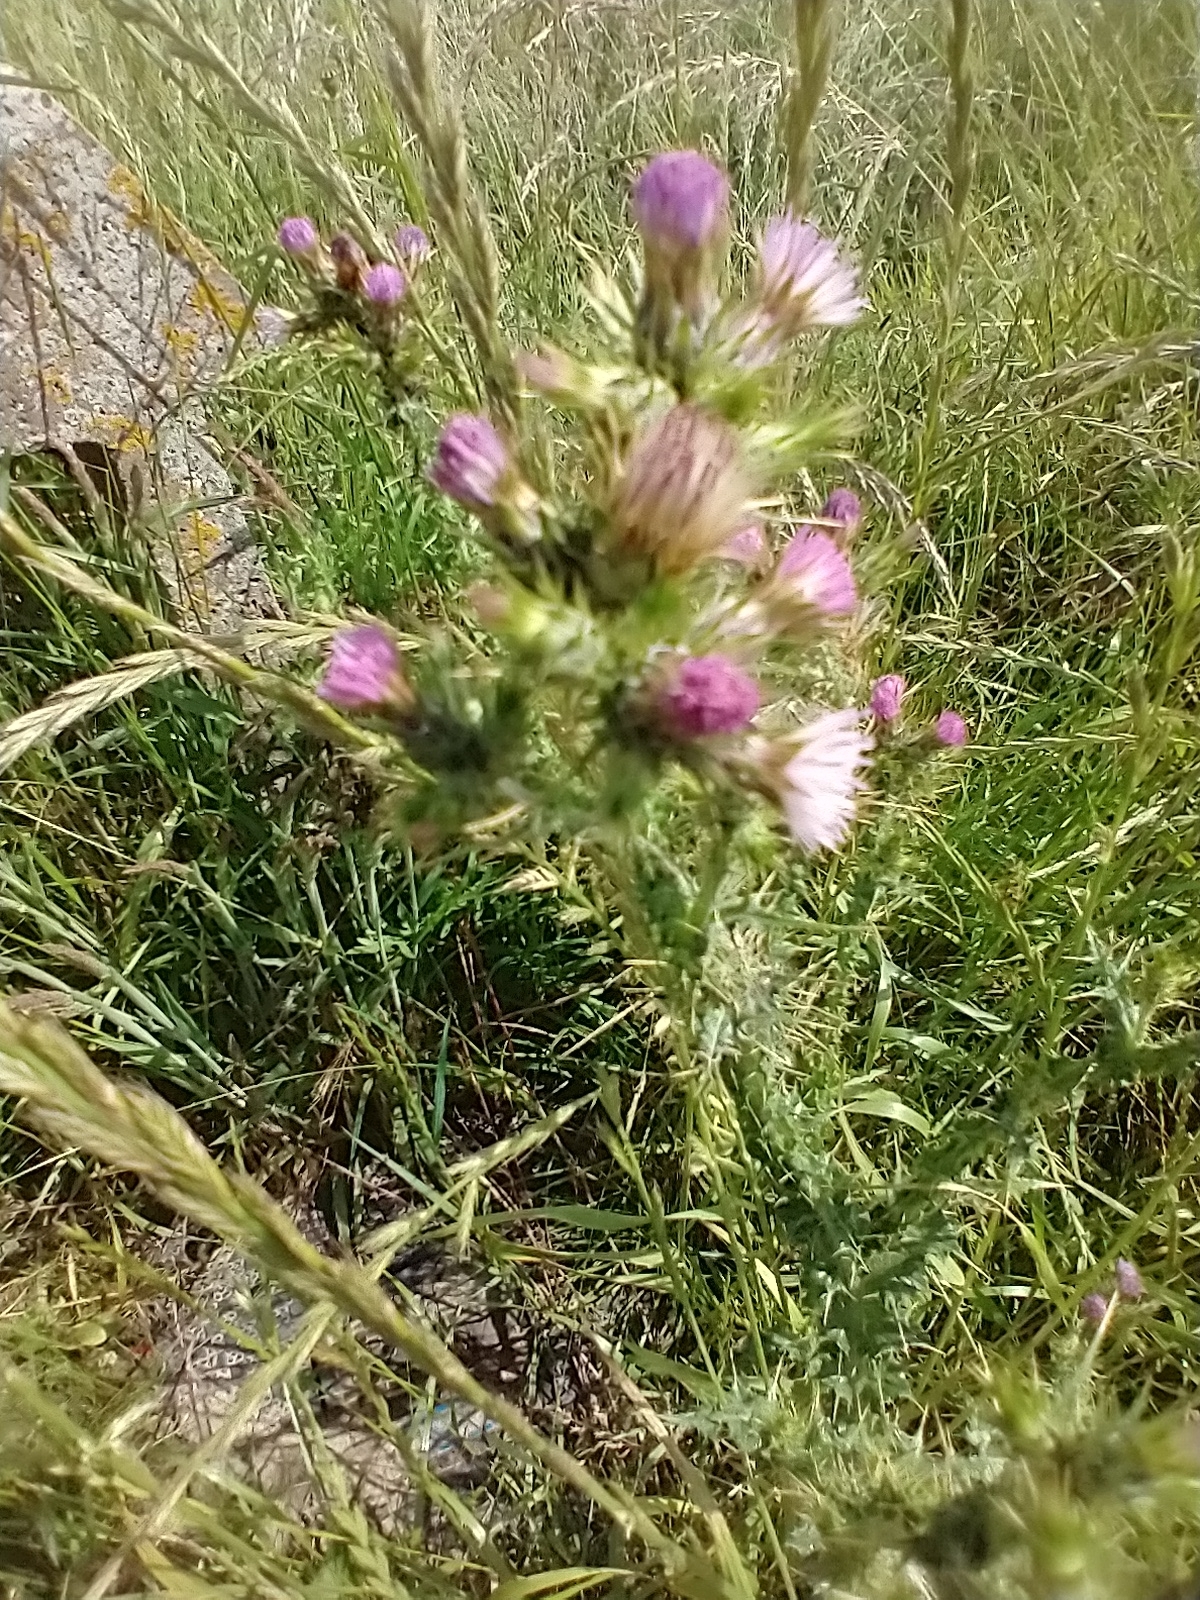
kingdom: Plantae
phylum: Tracheophyta
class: Magnoliopsida
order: Asterales
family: Asteraceae
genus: Carduus
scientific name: Carduus tenuiflorus
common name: Slender thistle
